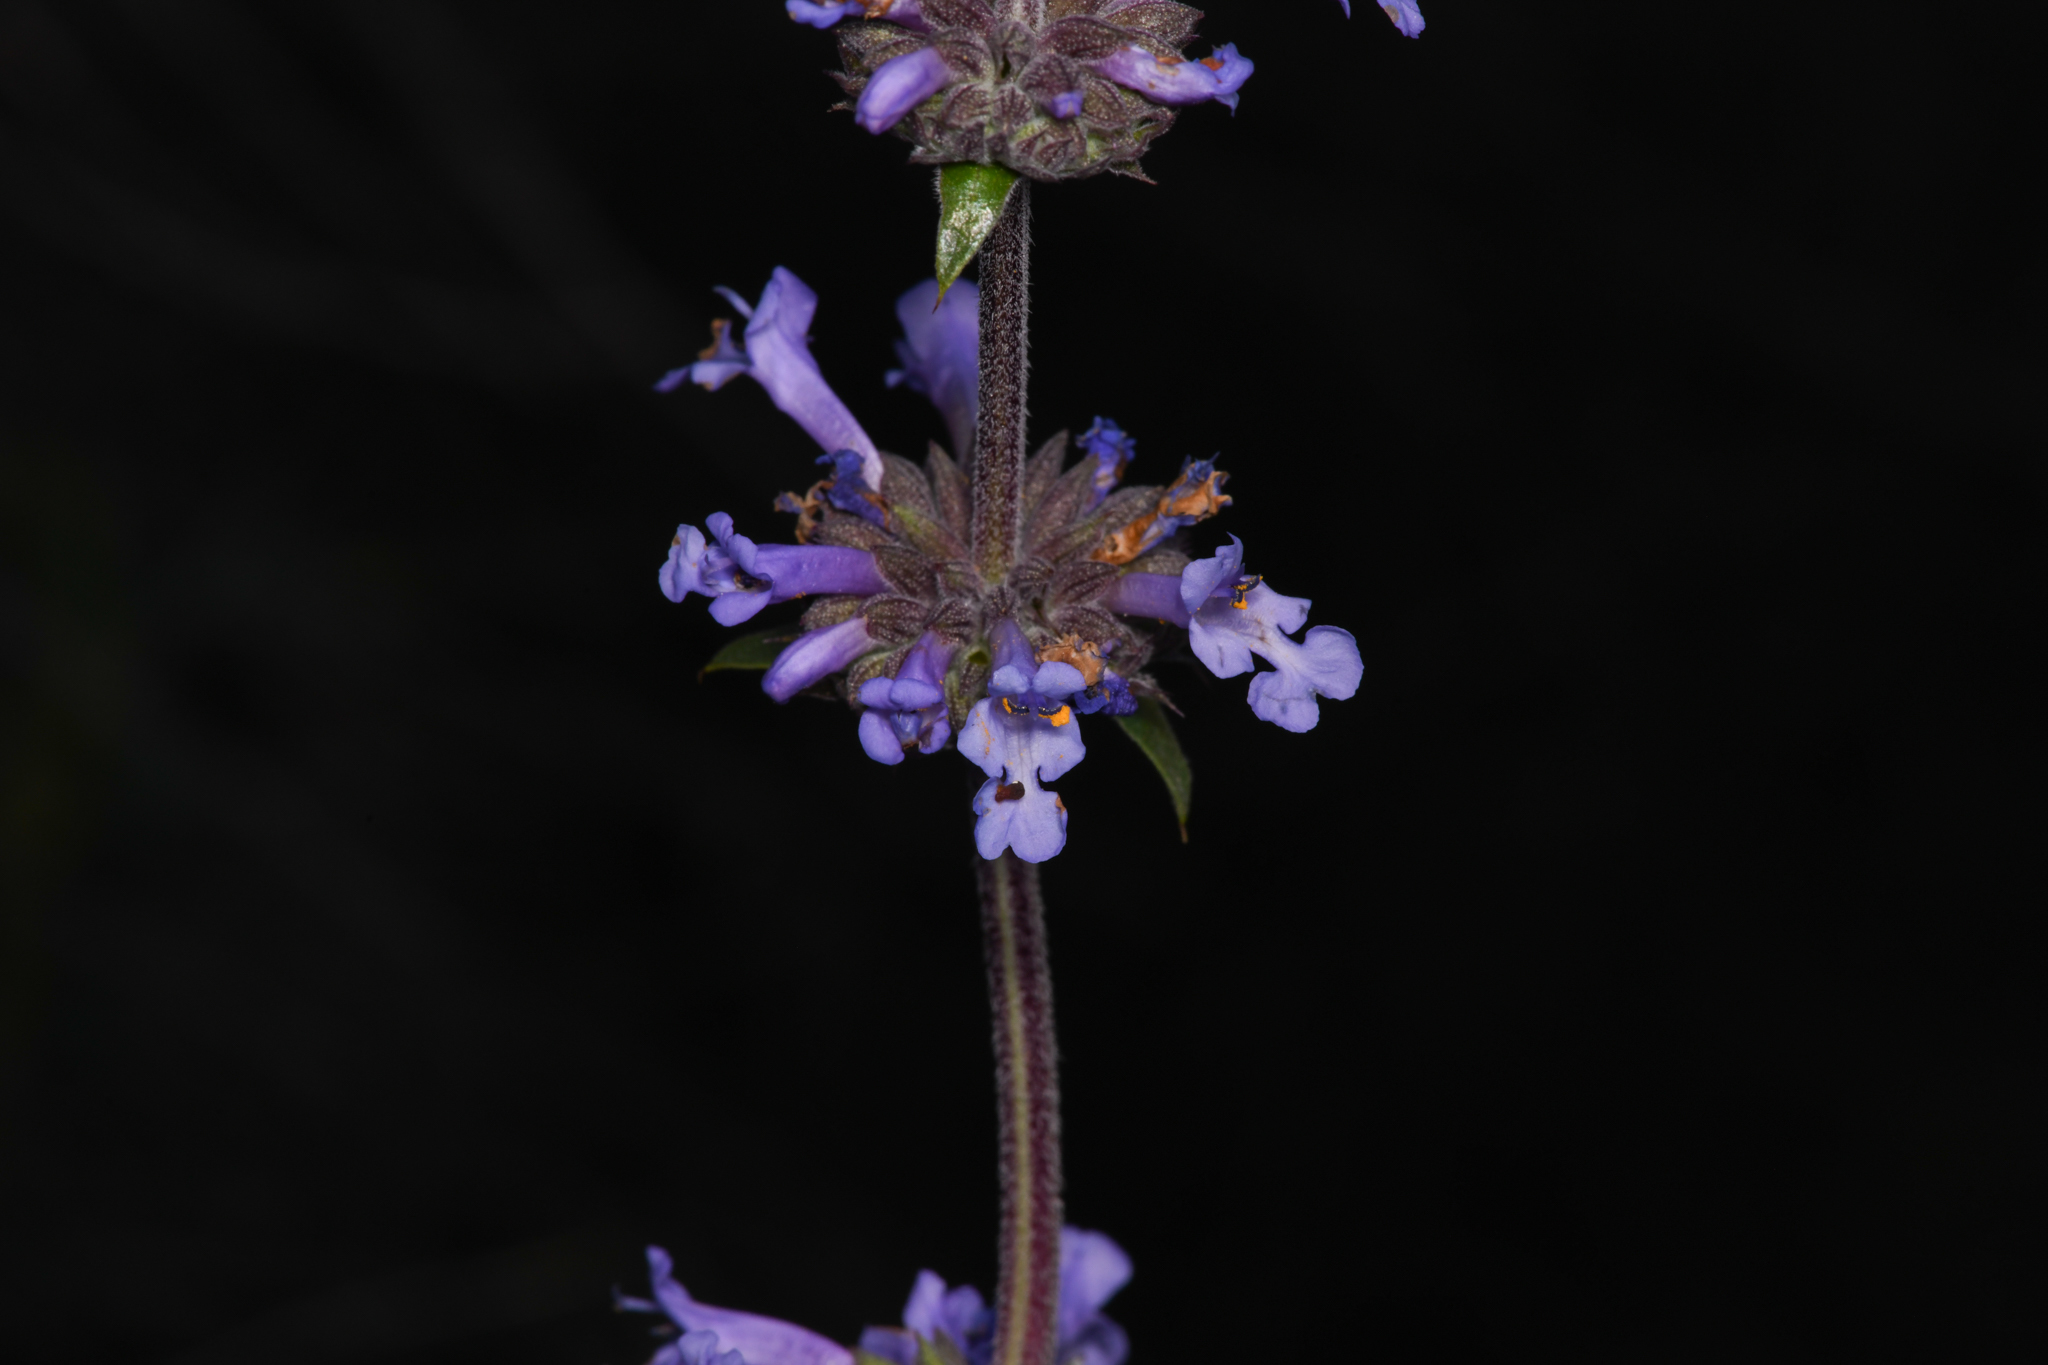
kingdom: Plantae
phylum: Tracheophyta
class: Magnoliopsida
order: Lamiales
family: Lamiaceae
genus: Salvia
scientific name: Salvia munzii
